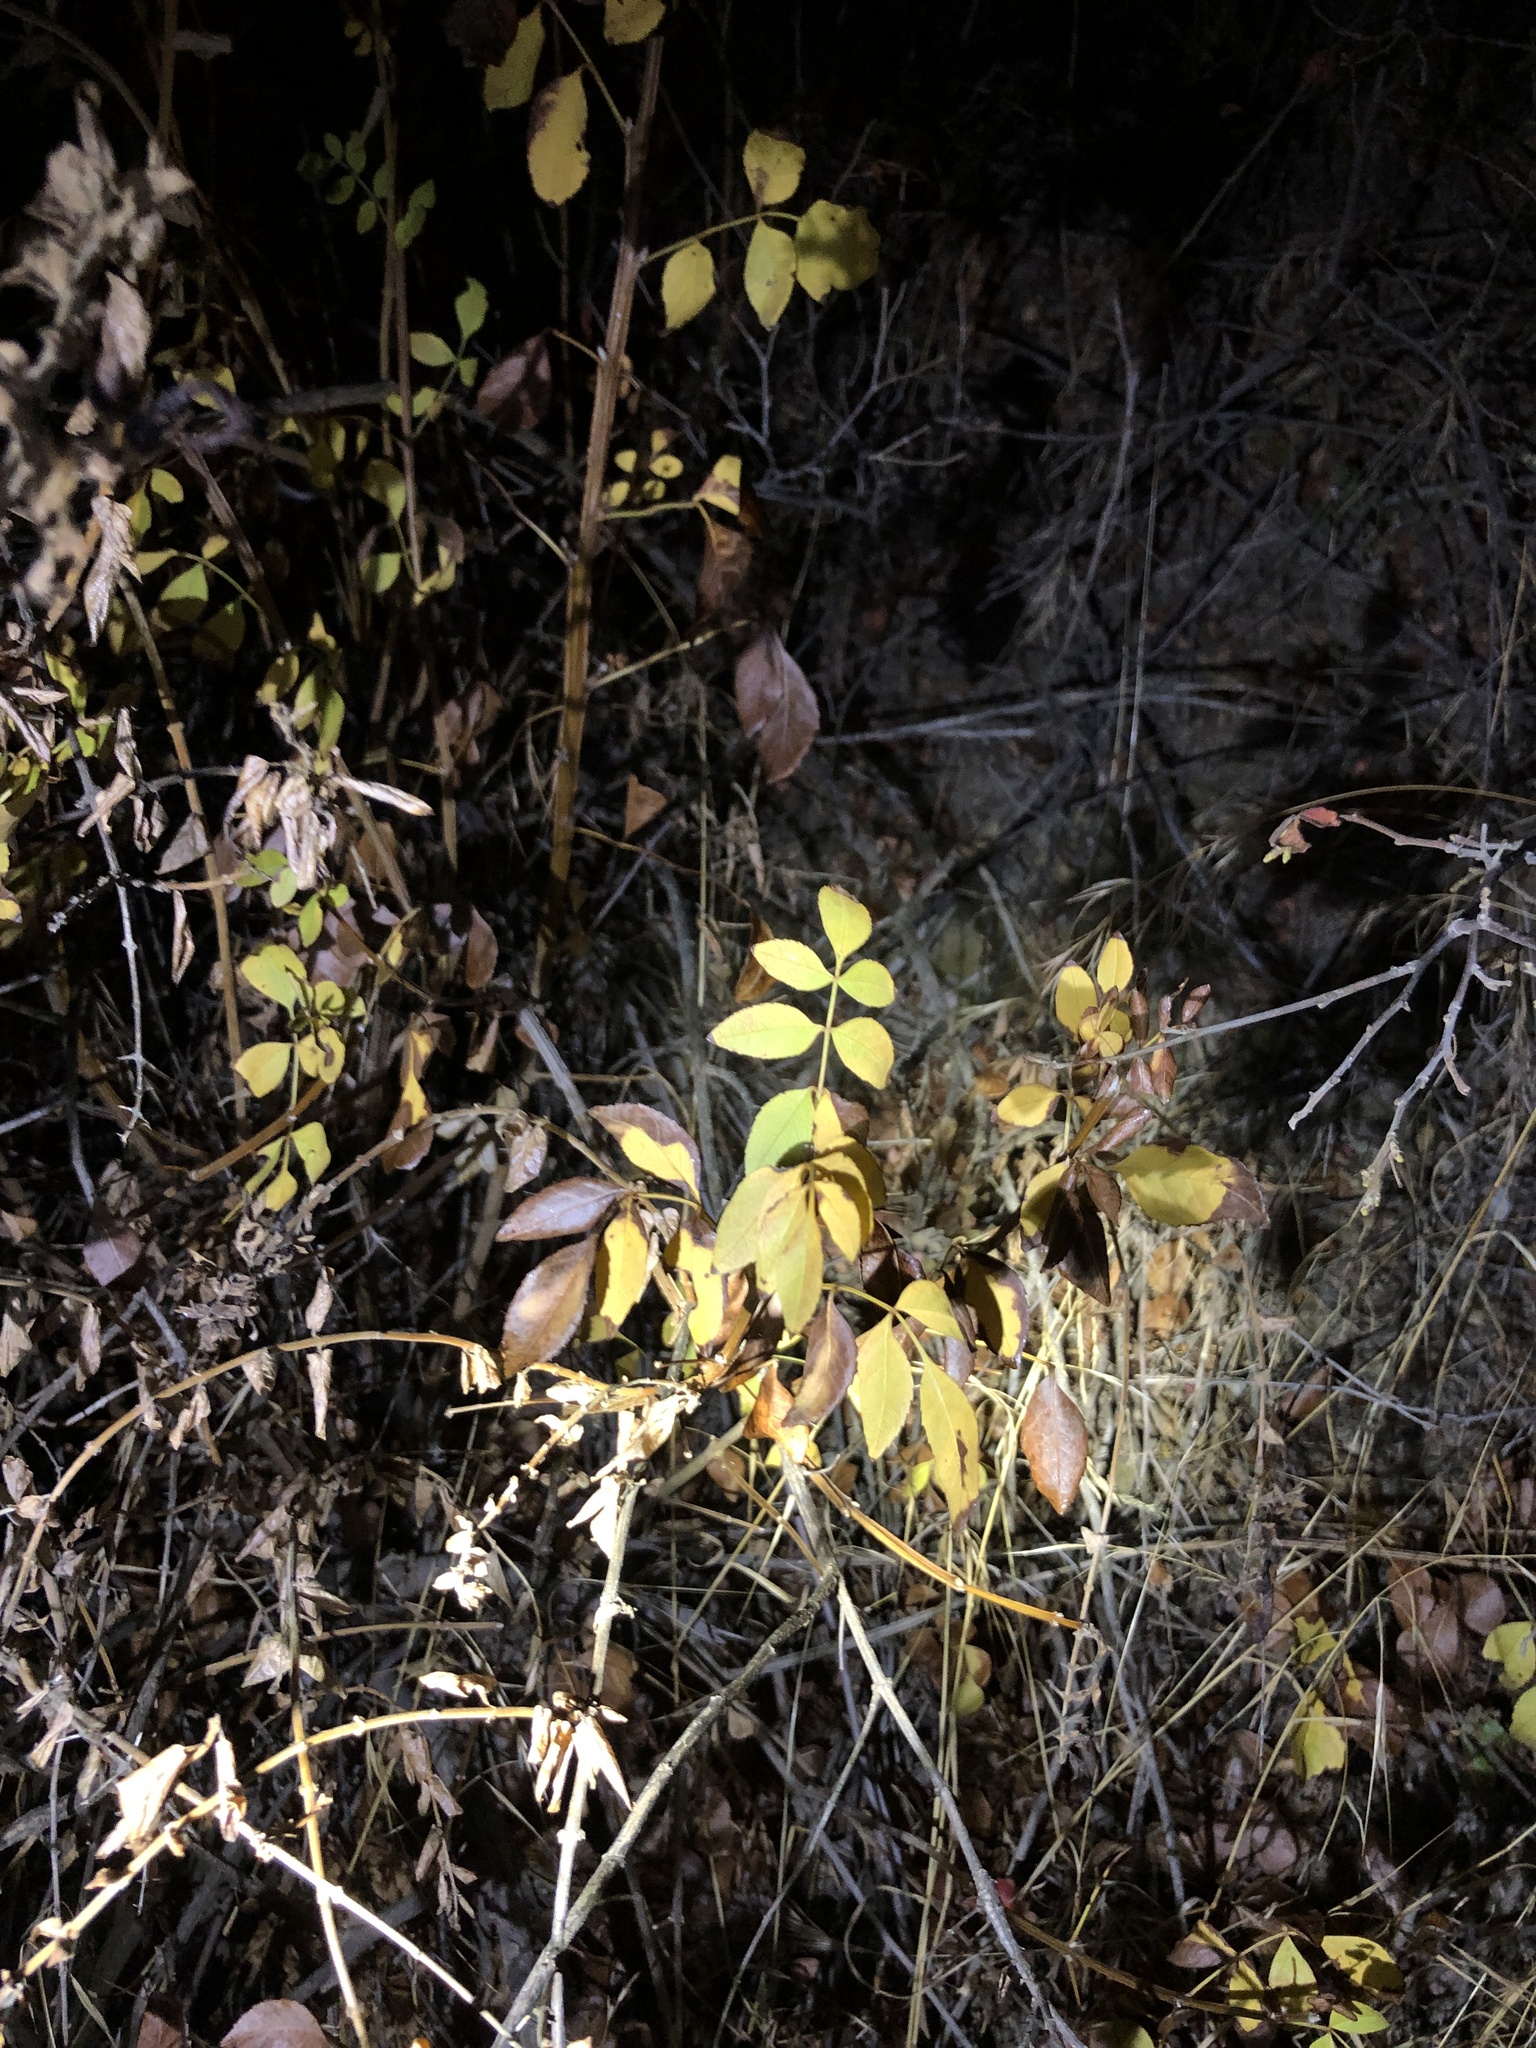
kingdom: Plantae
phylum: Tracheophyta
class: Magnoliopsida
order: Lamiales
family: Oleaceae
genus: Fraxinus
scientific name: Fraxinus dipetala
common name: California ash
